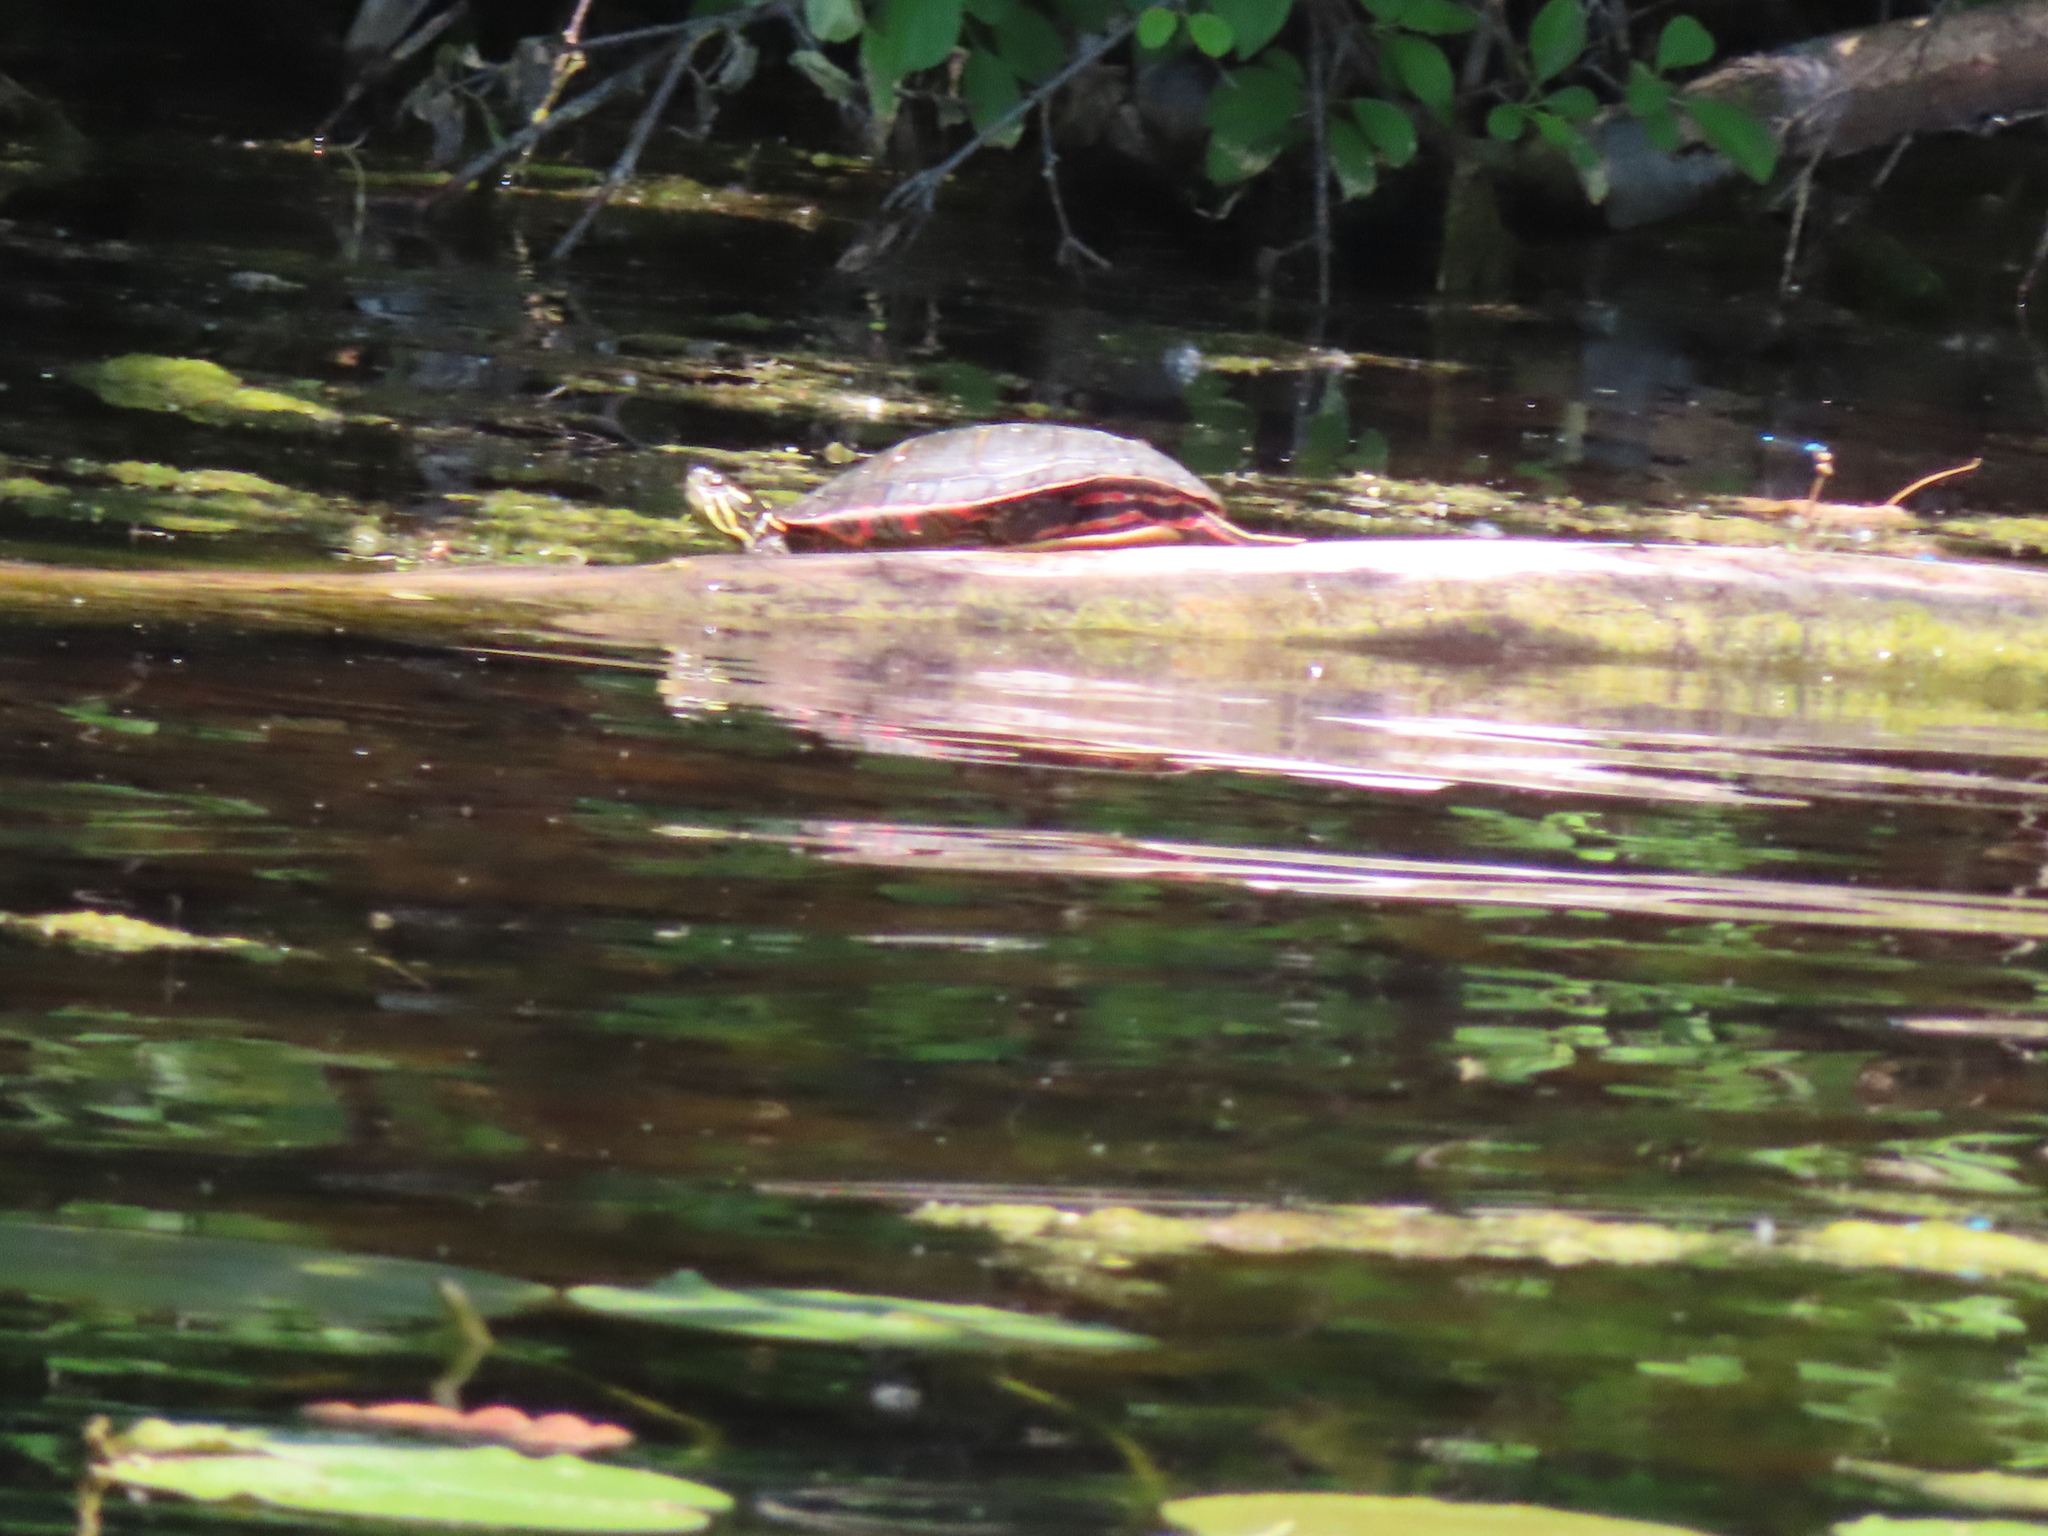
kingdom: Animalia
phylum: Chordata
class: Testudines
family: Emydidae
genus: Chrysemys
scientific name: Chrysemys picta
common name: Painted turtle
